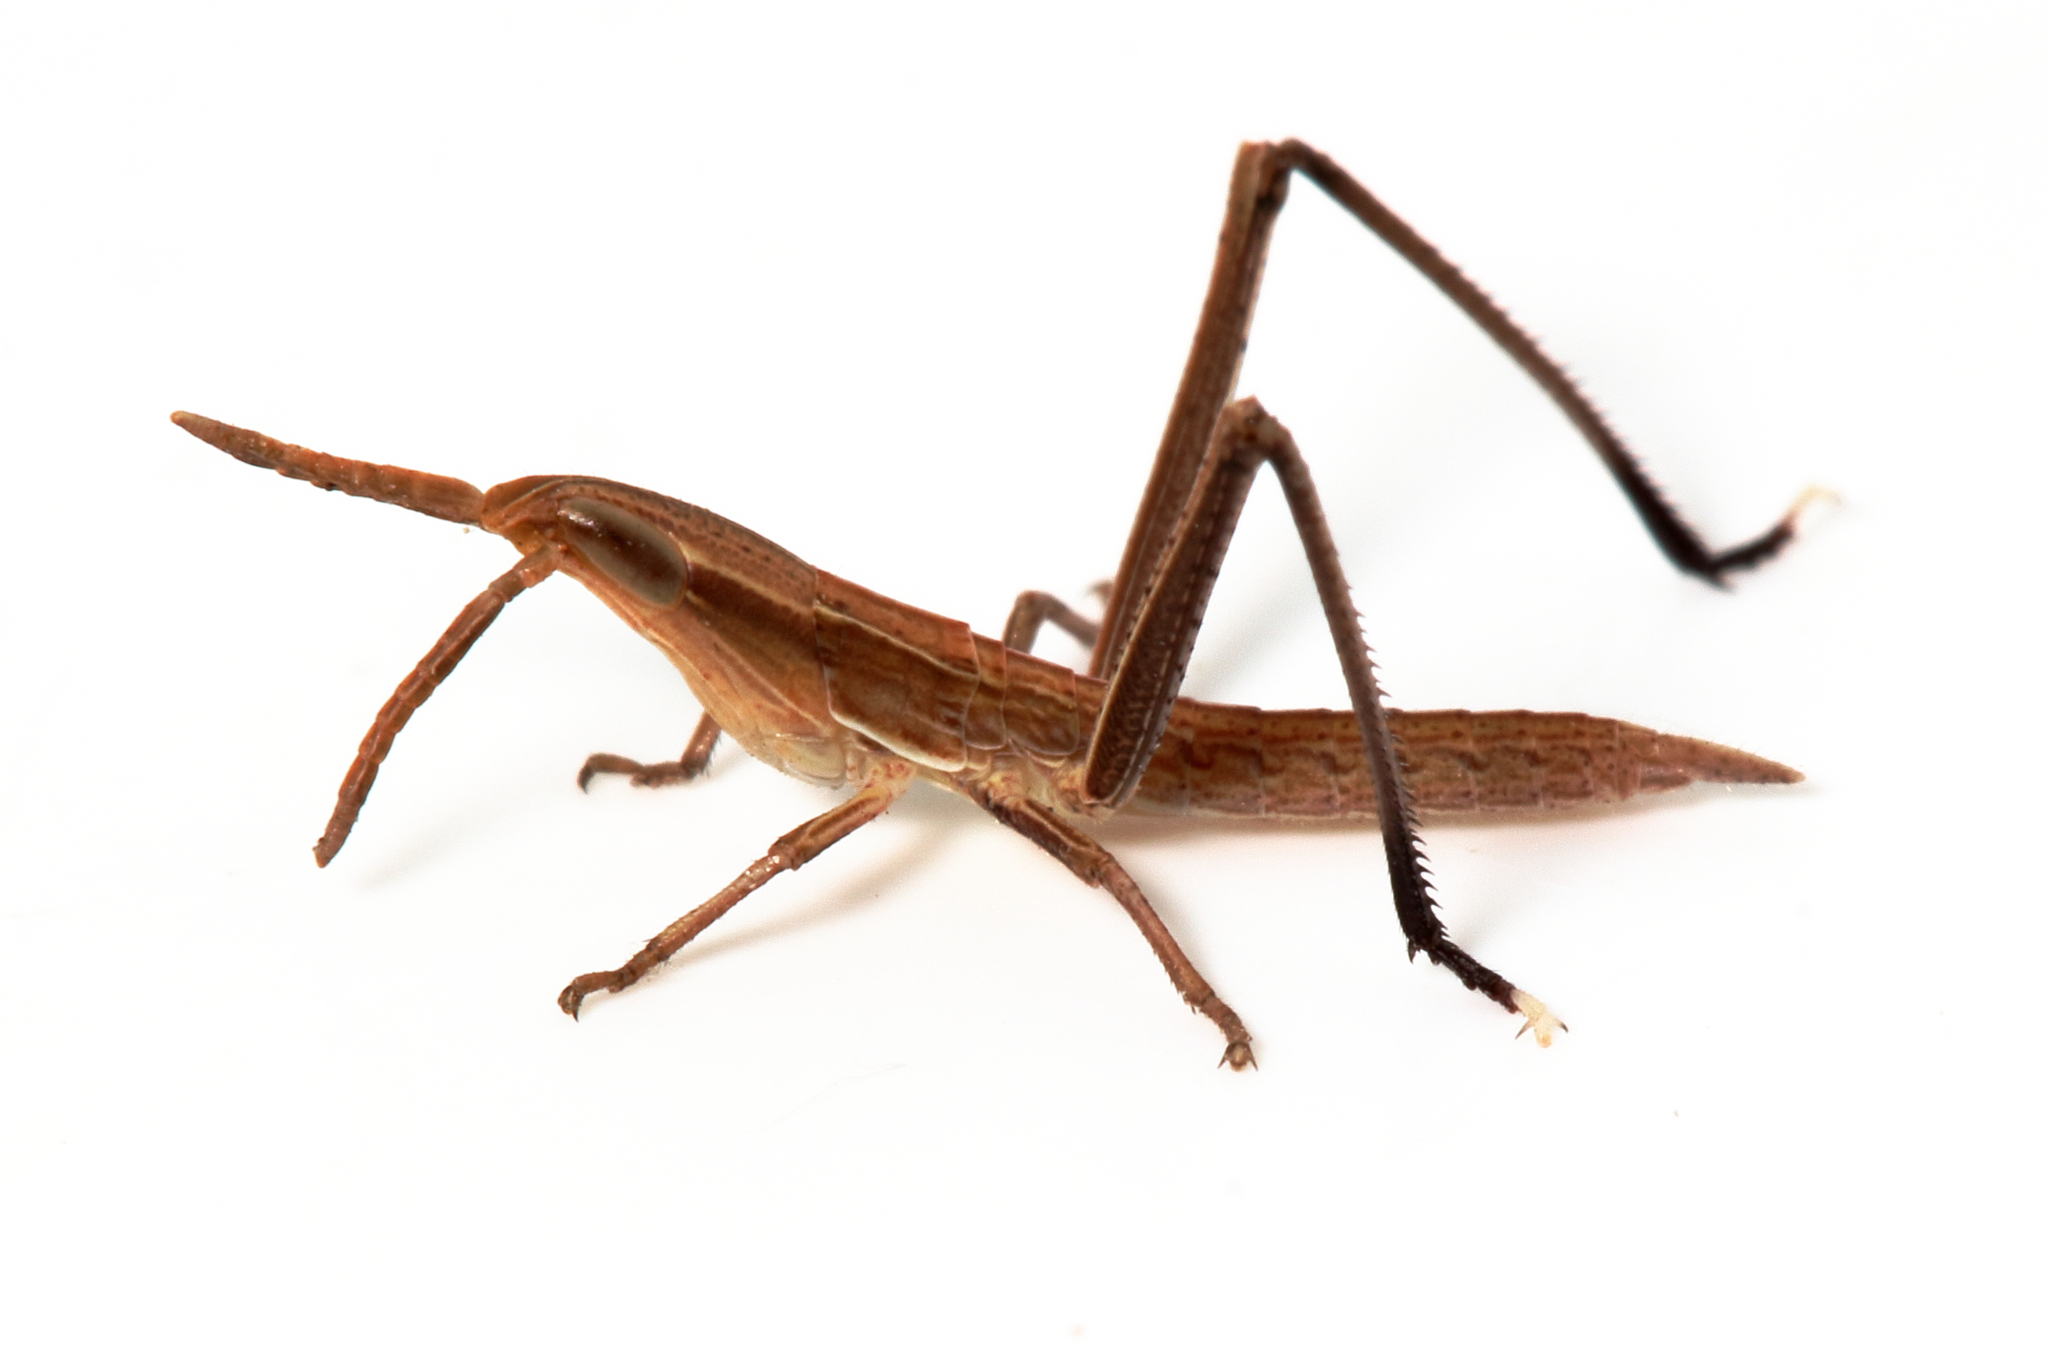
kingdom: Animalia
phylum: Arthropoda
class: Insecta
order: Orthoptera
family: Acrididae
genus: Acrida
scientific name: Acrida conica
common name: Giant green slantface
